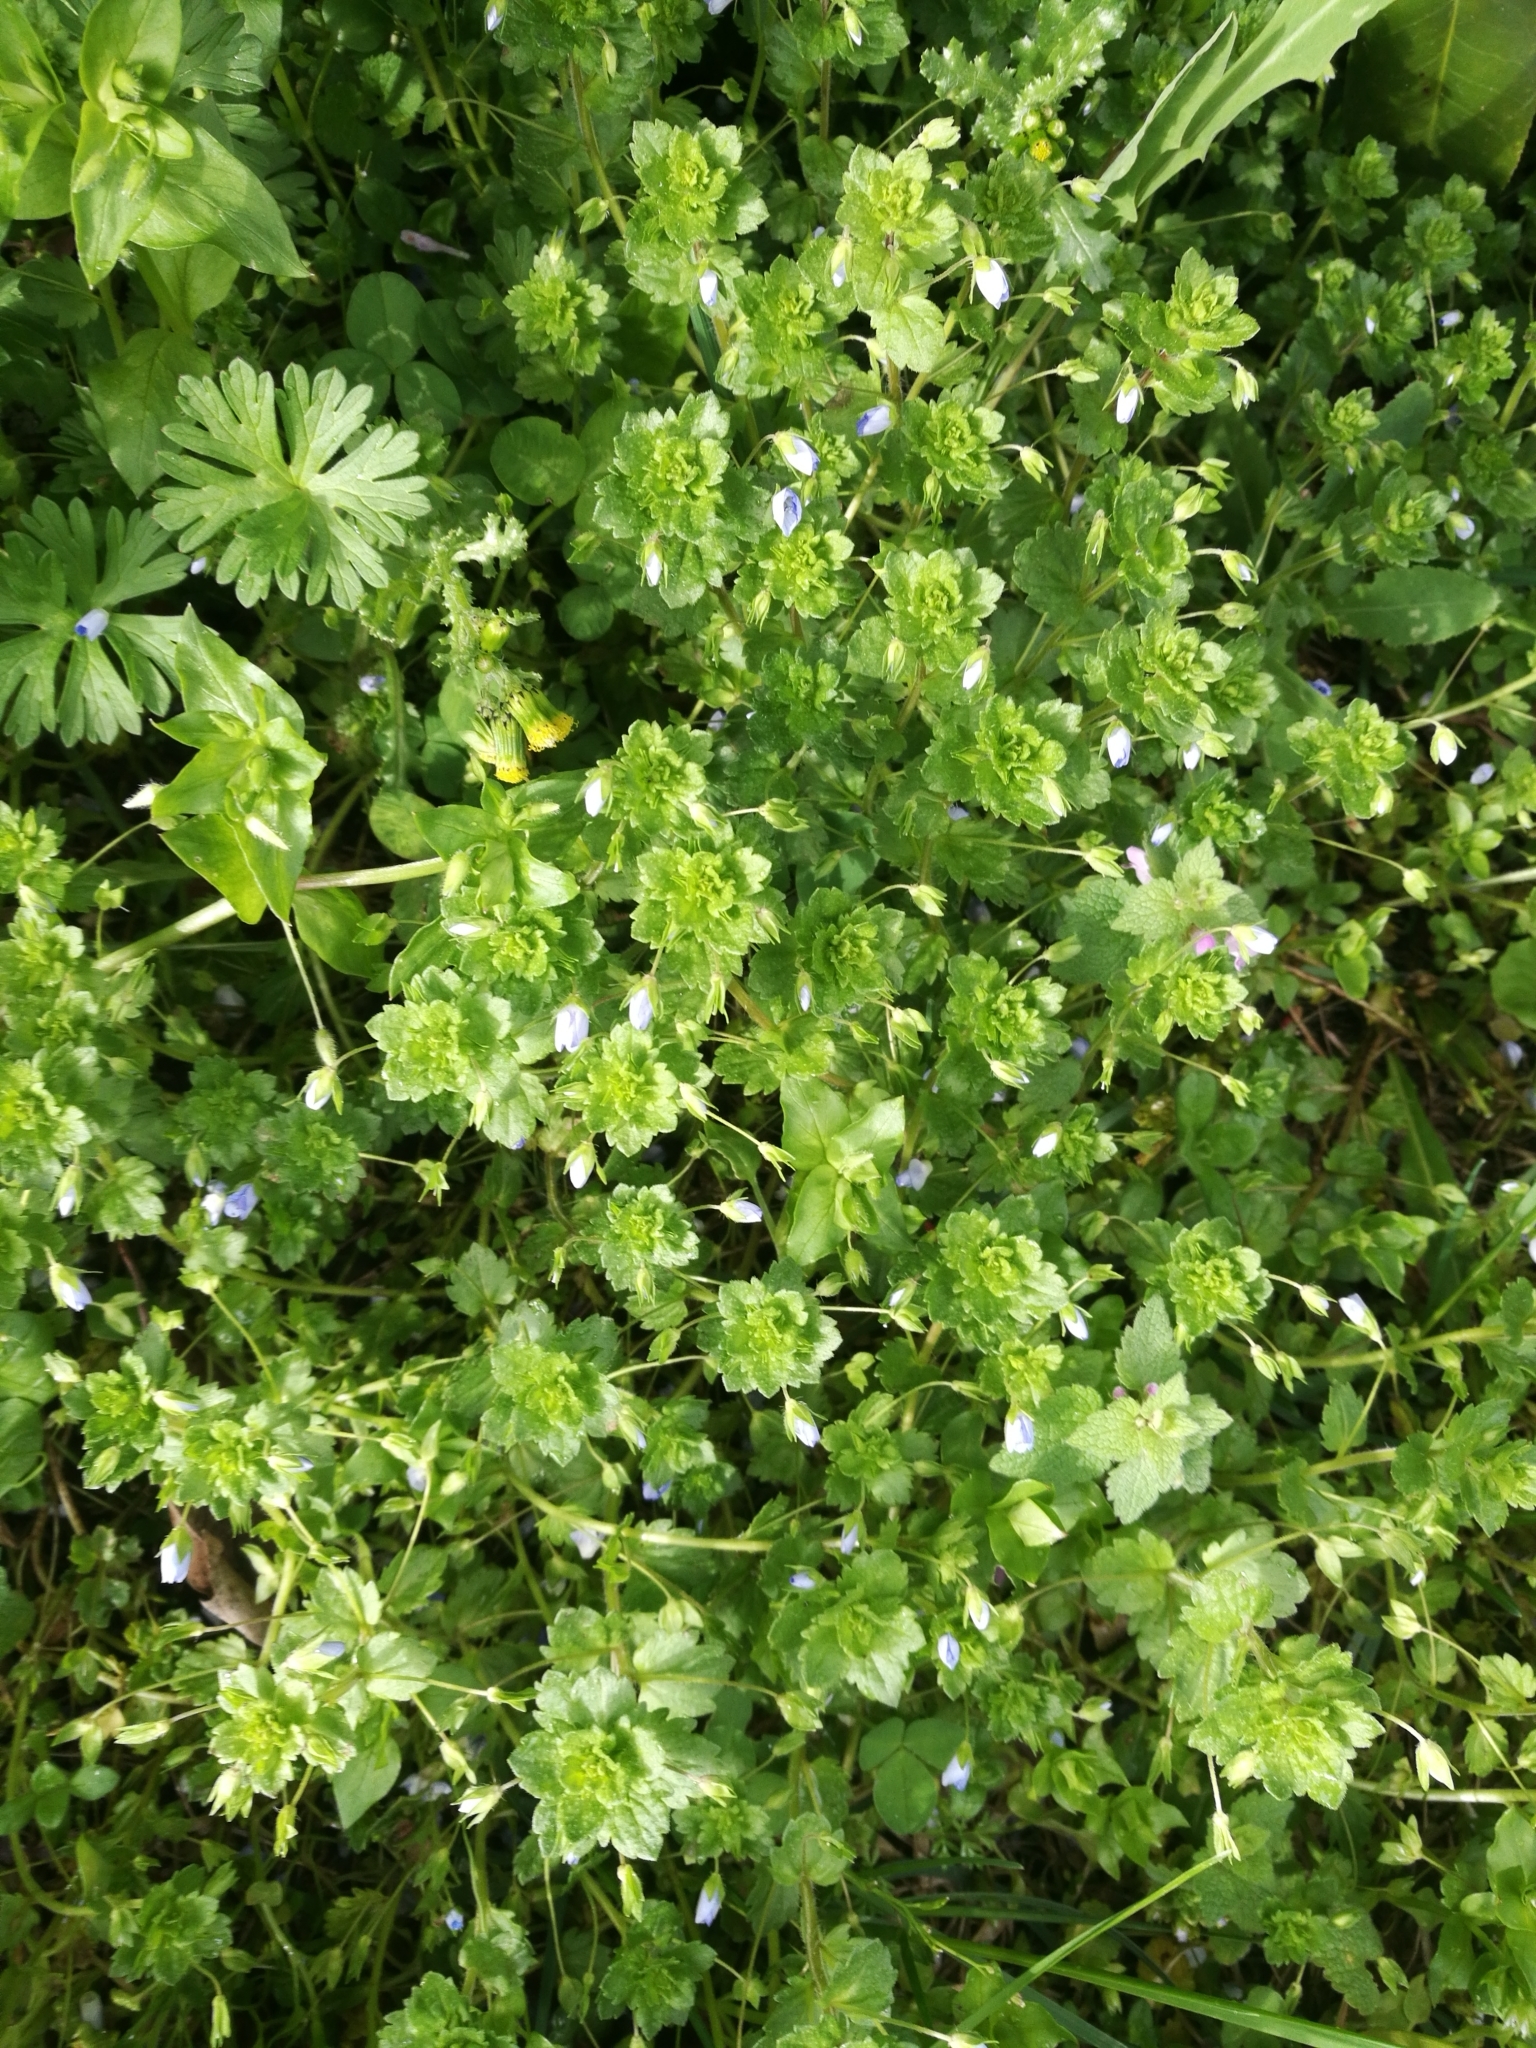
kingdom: Plantae
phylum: Tracheophyta
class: Magnoliopsida
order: Lamiales
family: Plantaginaceae
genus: Veronica
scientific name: Veronica persica
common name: Common field-speedwell
